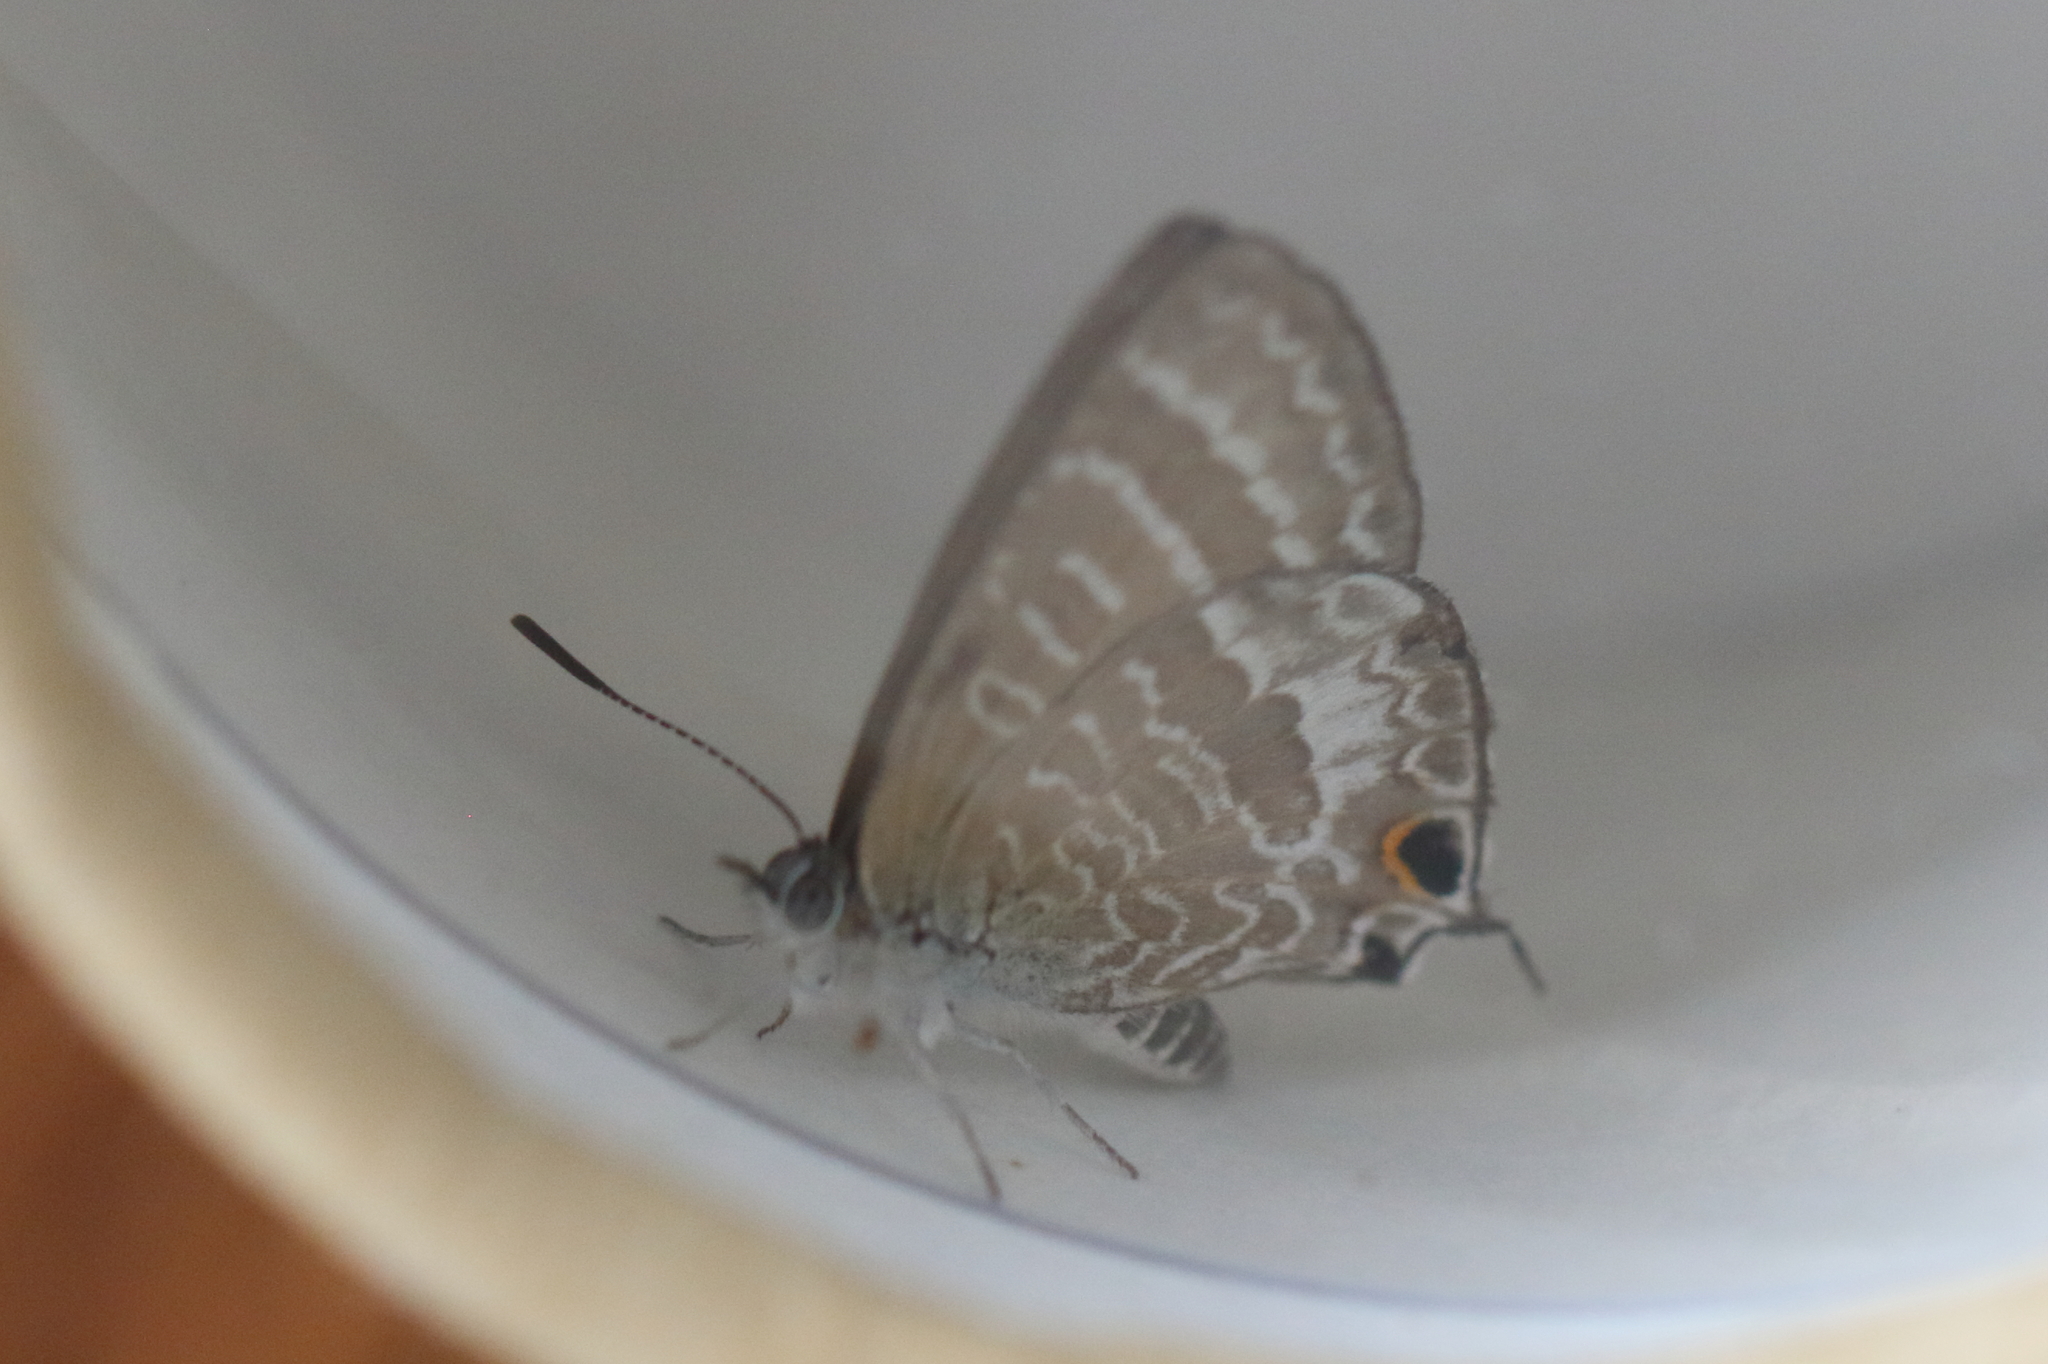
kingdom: Animalia
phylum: Arthropoda
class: Insecta
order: Lepidoptera
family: Lycaenidae
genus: Theclinesthes
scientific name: Theclinesthes miskini
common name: Wattle blue
